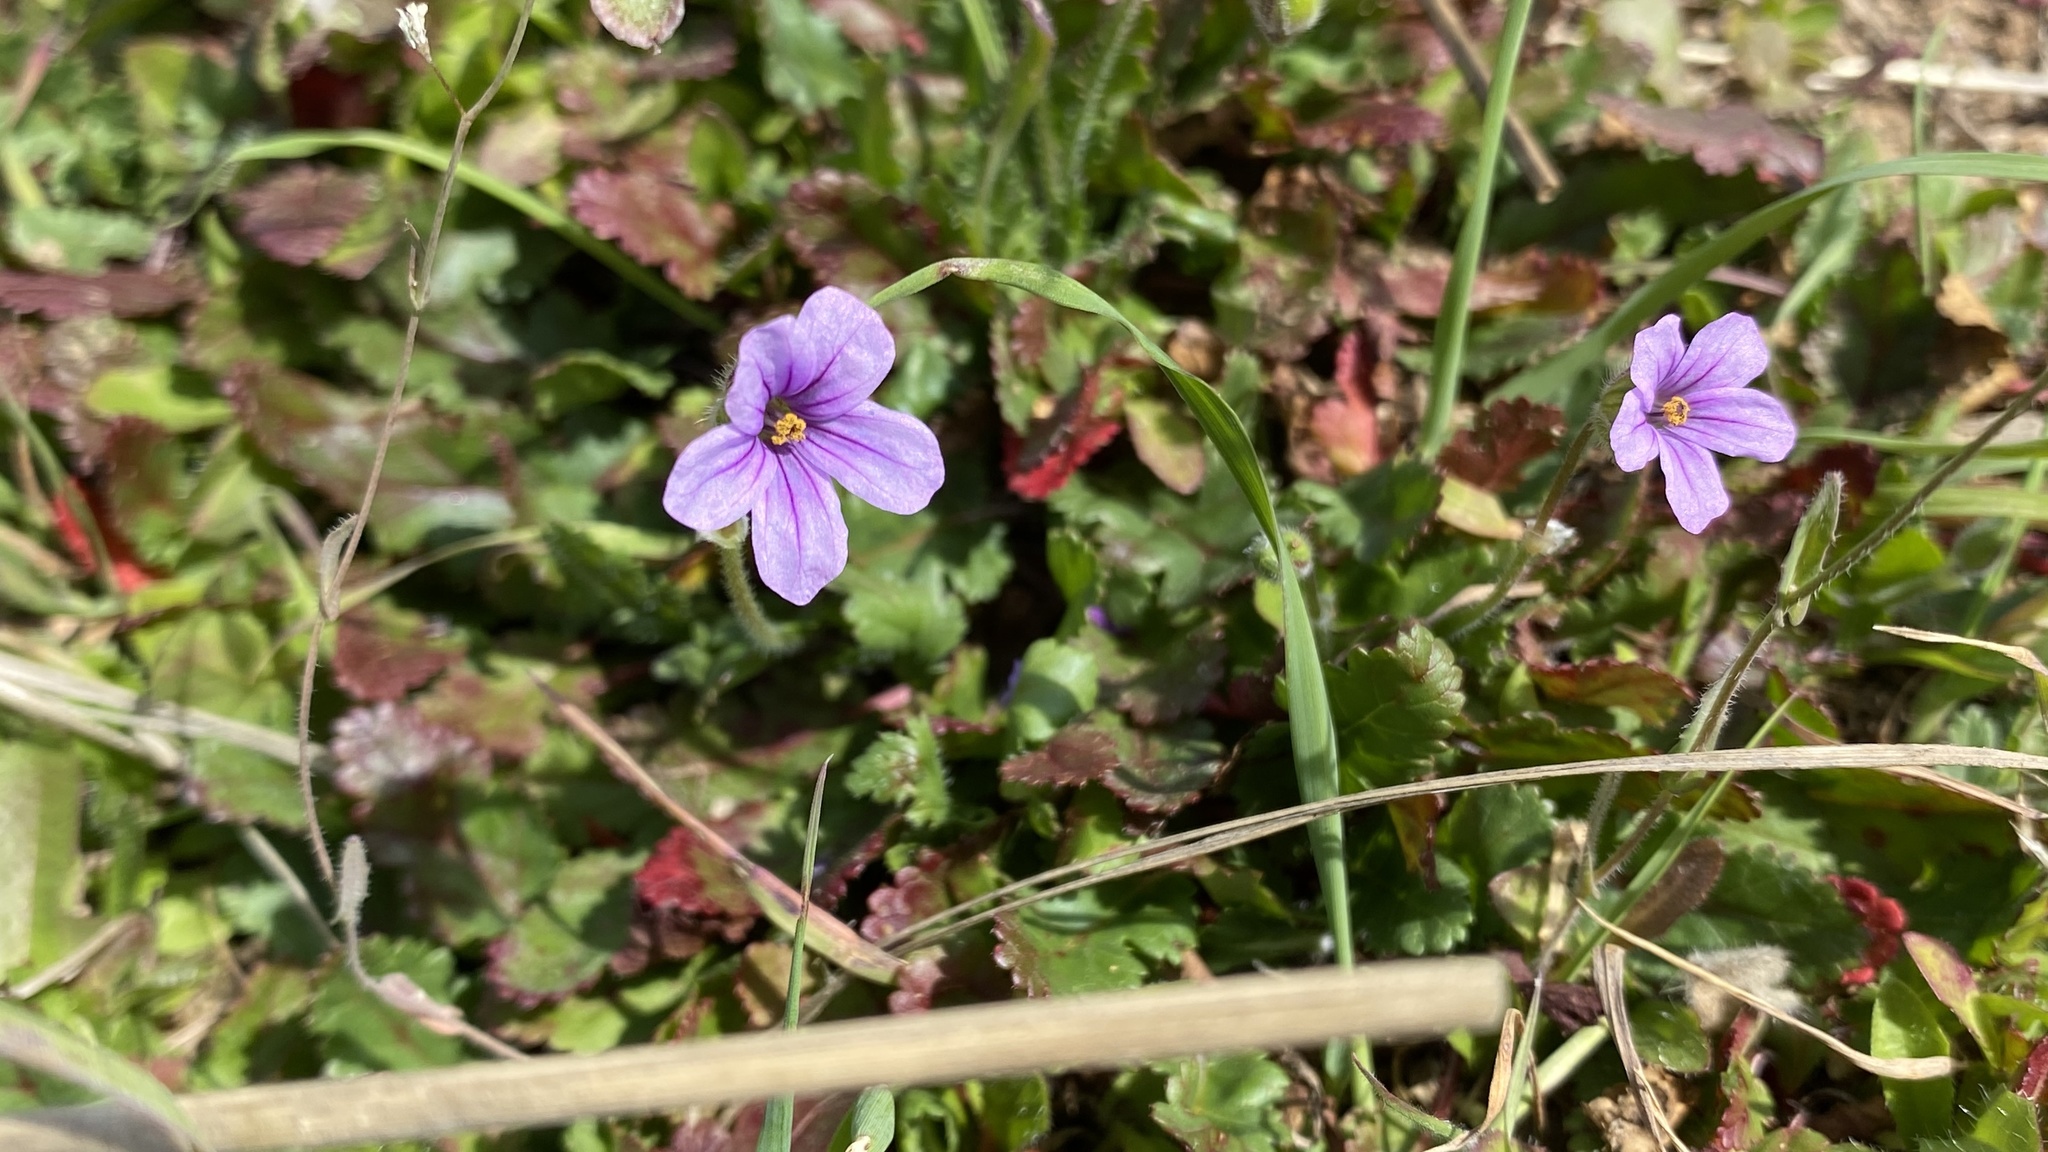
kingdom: Plantae
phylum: Tracheophyta
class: Magnoliopsida
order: Geraniales
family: Geraniaceae
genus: Erodium
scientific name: Erodium botrys
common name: Mediterranean stork's-bill
